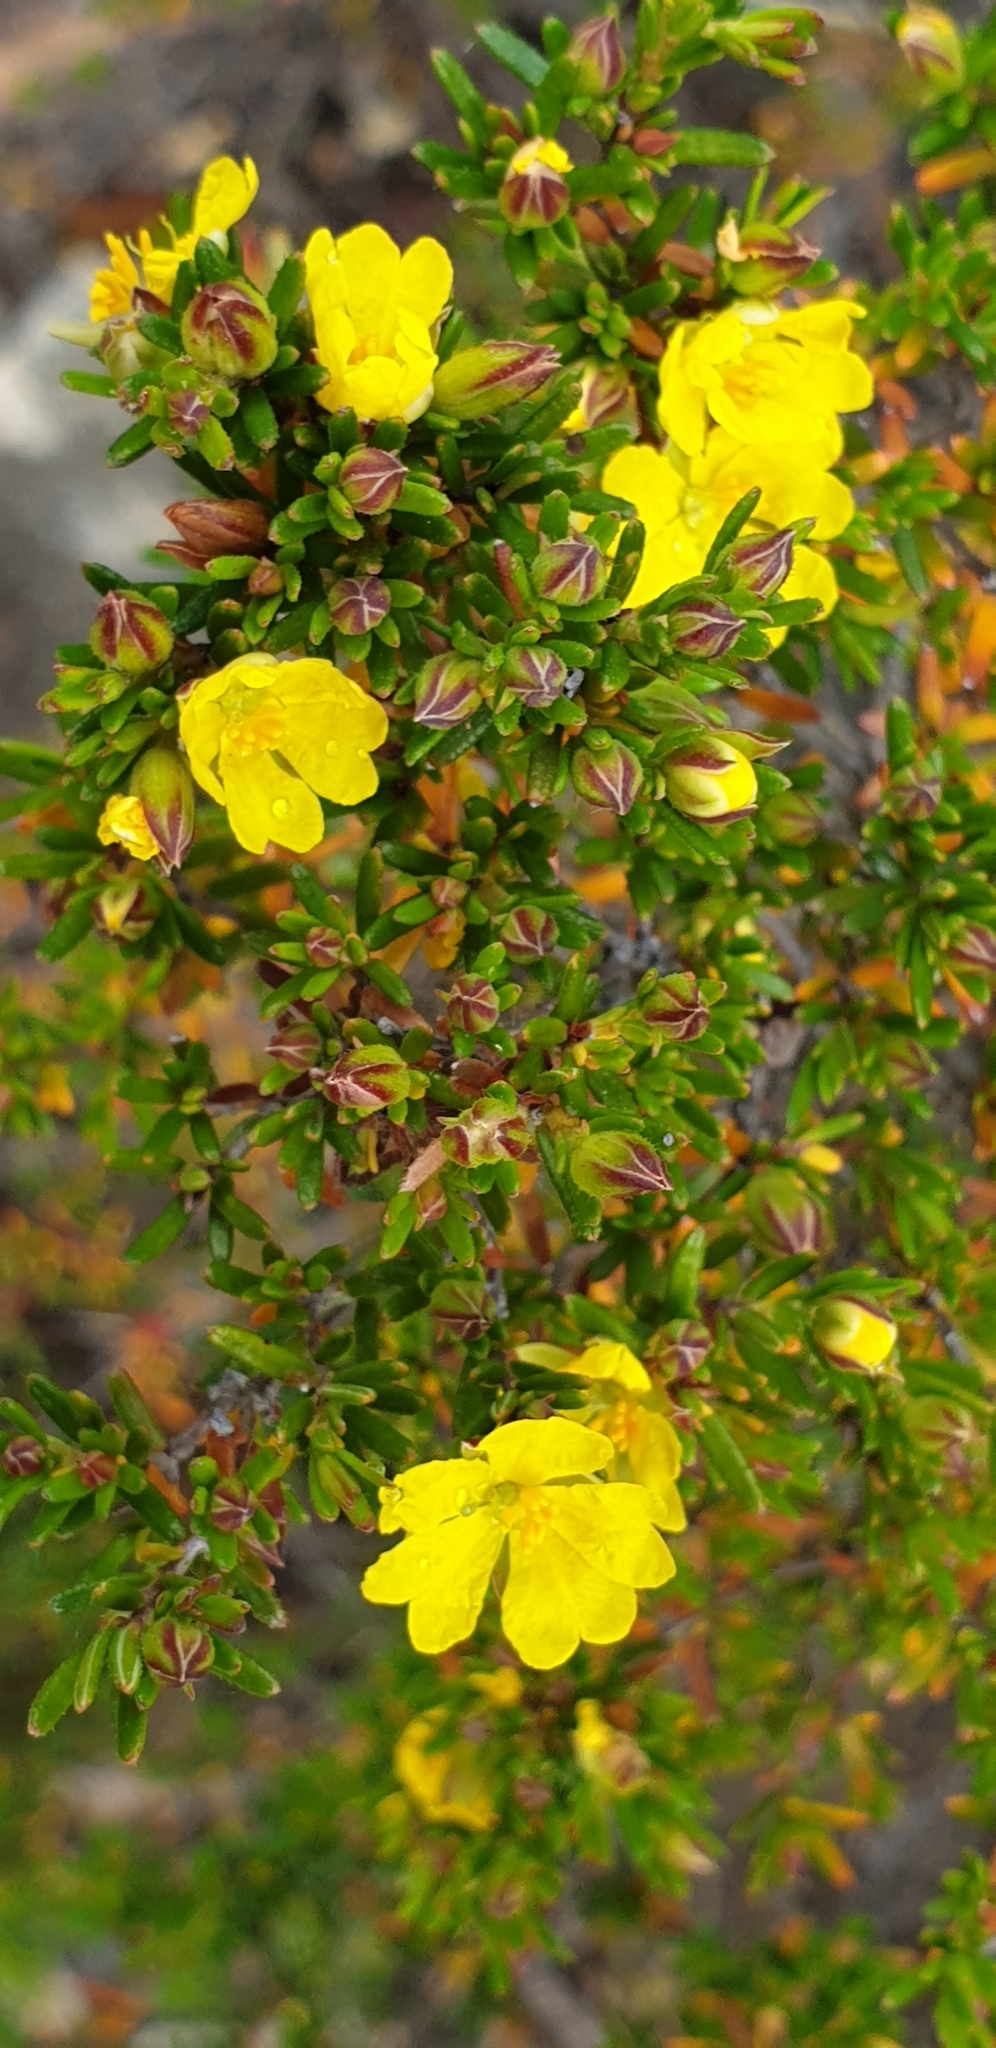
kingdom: Plantae
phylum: Tracheophyta
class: Magnoliopsida
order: Dilleniales
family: Dilleniaceae
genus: Hibbertia
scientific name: Hibbertia riparia
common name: Erect guinea-flower
